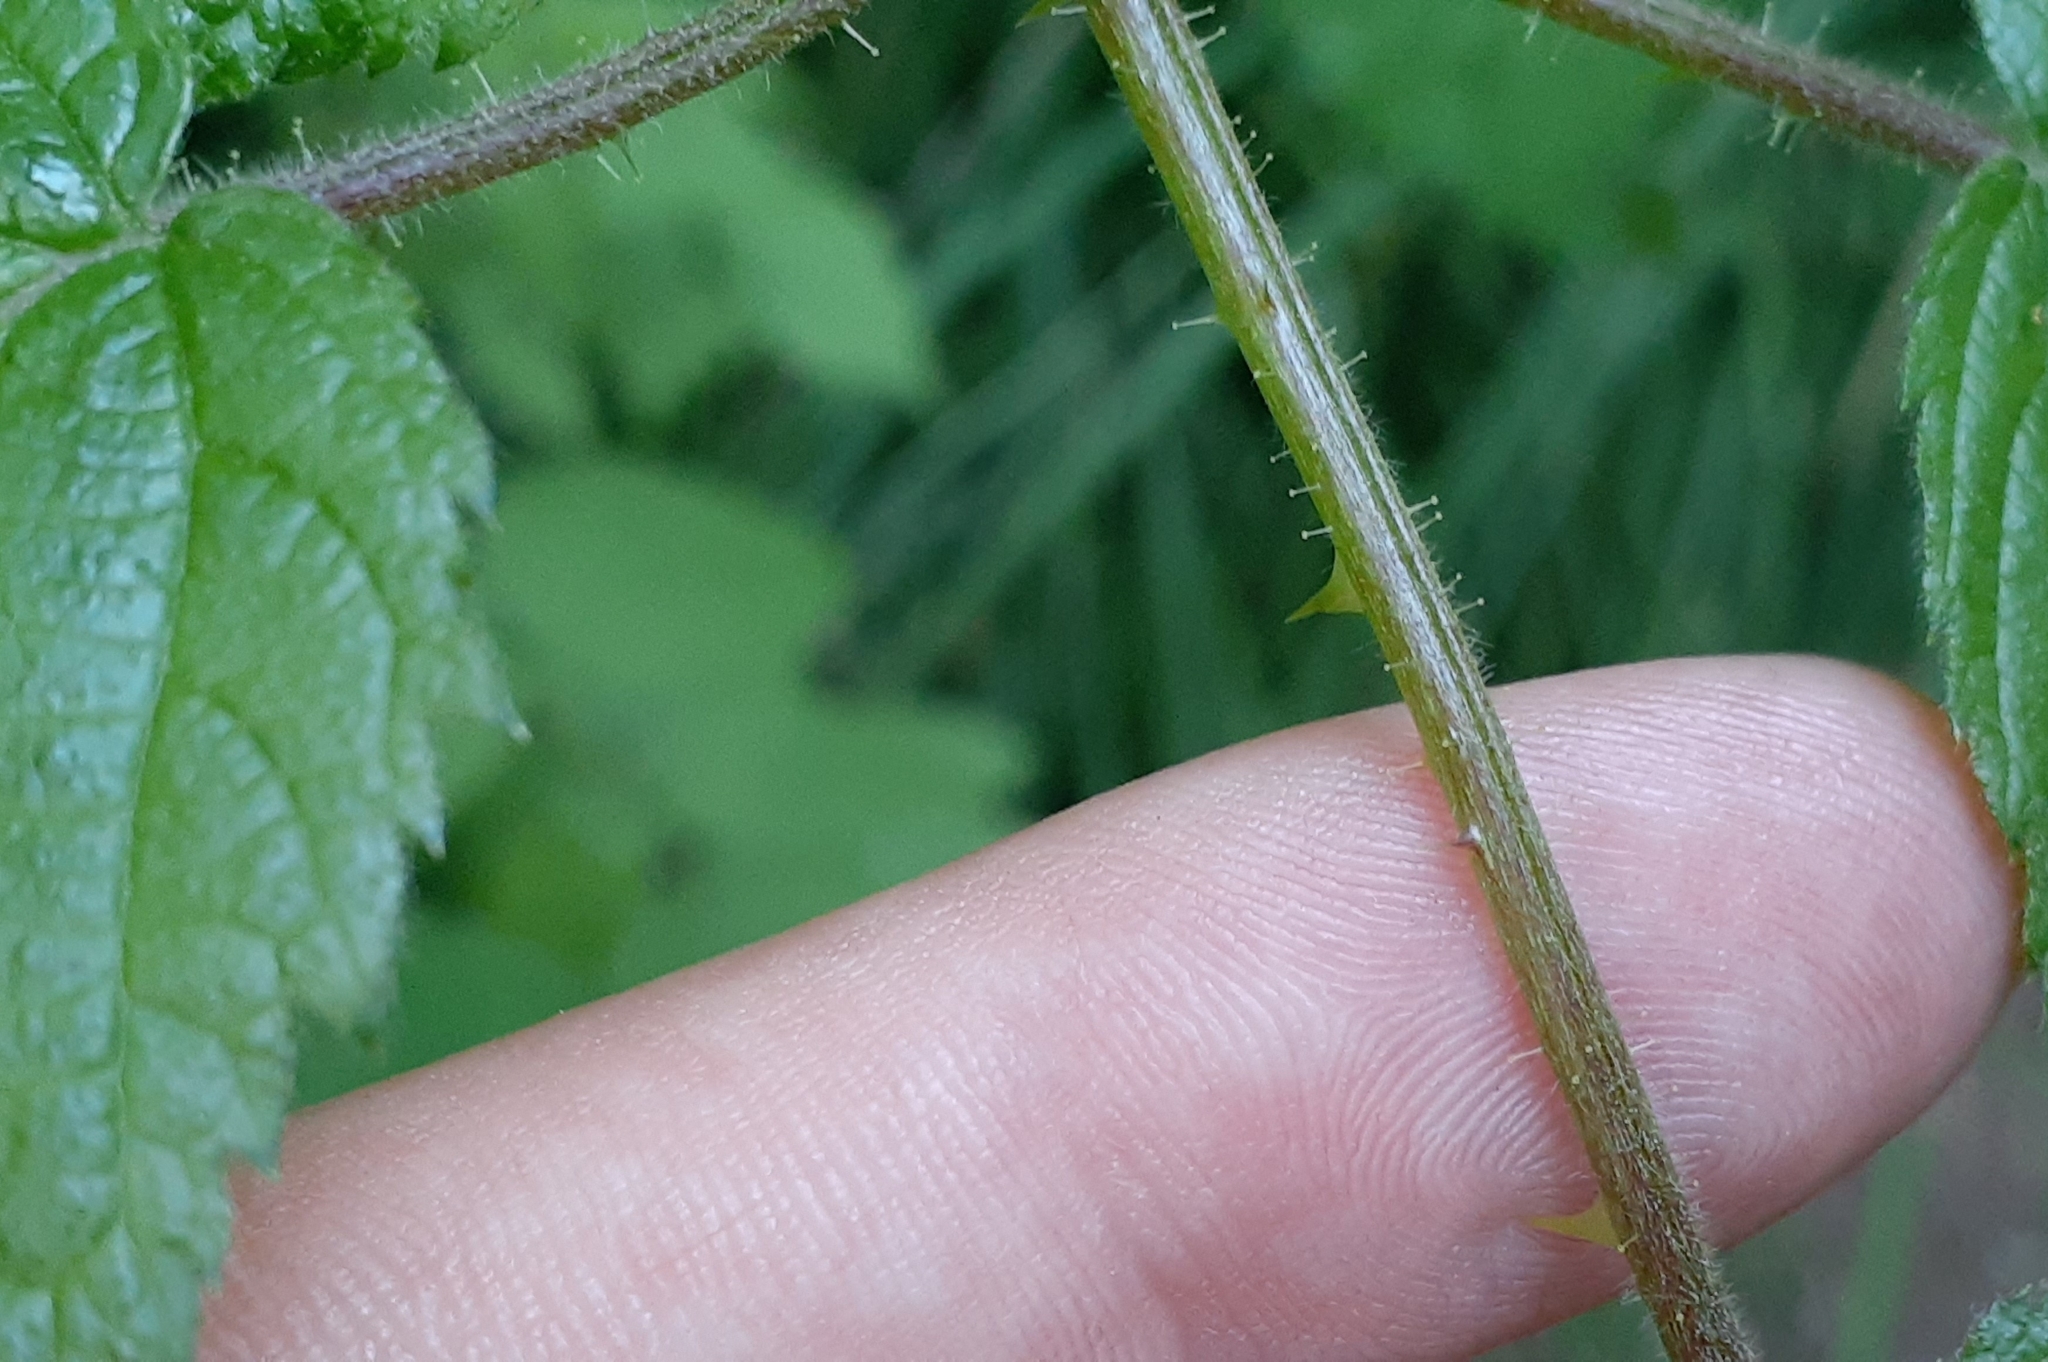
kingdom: Plantae
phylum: Tracheophyta
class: Magnoliopsida
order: Rosales
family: Rosaceae
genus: Rubus
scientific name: Rubus allegheniensis
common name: Allegheny blackberry
